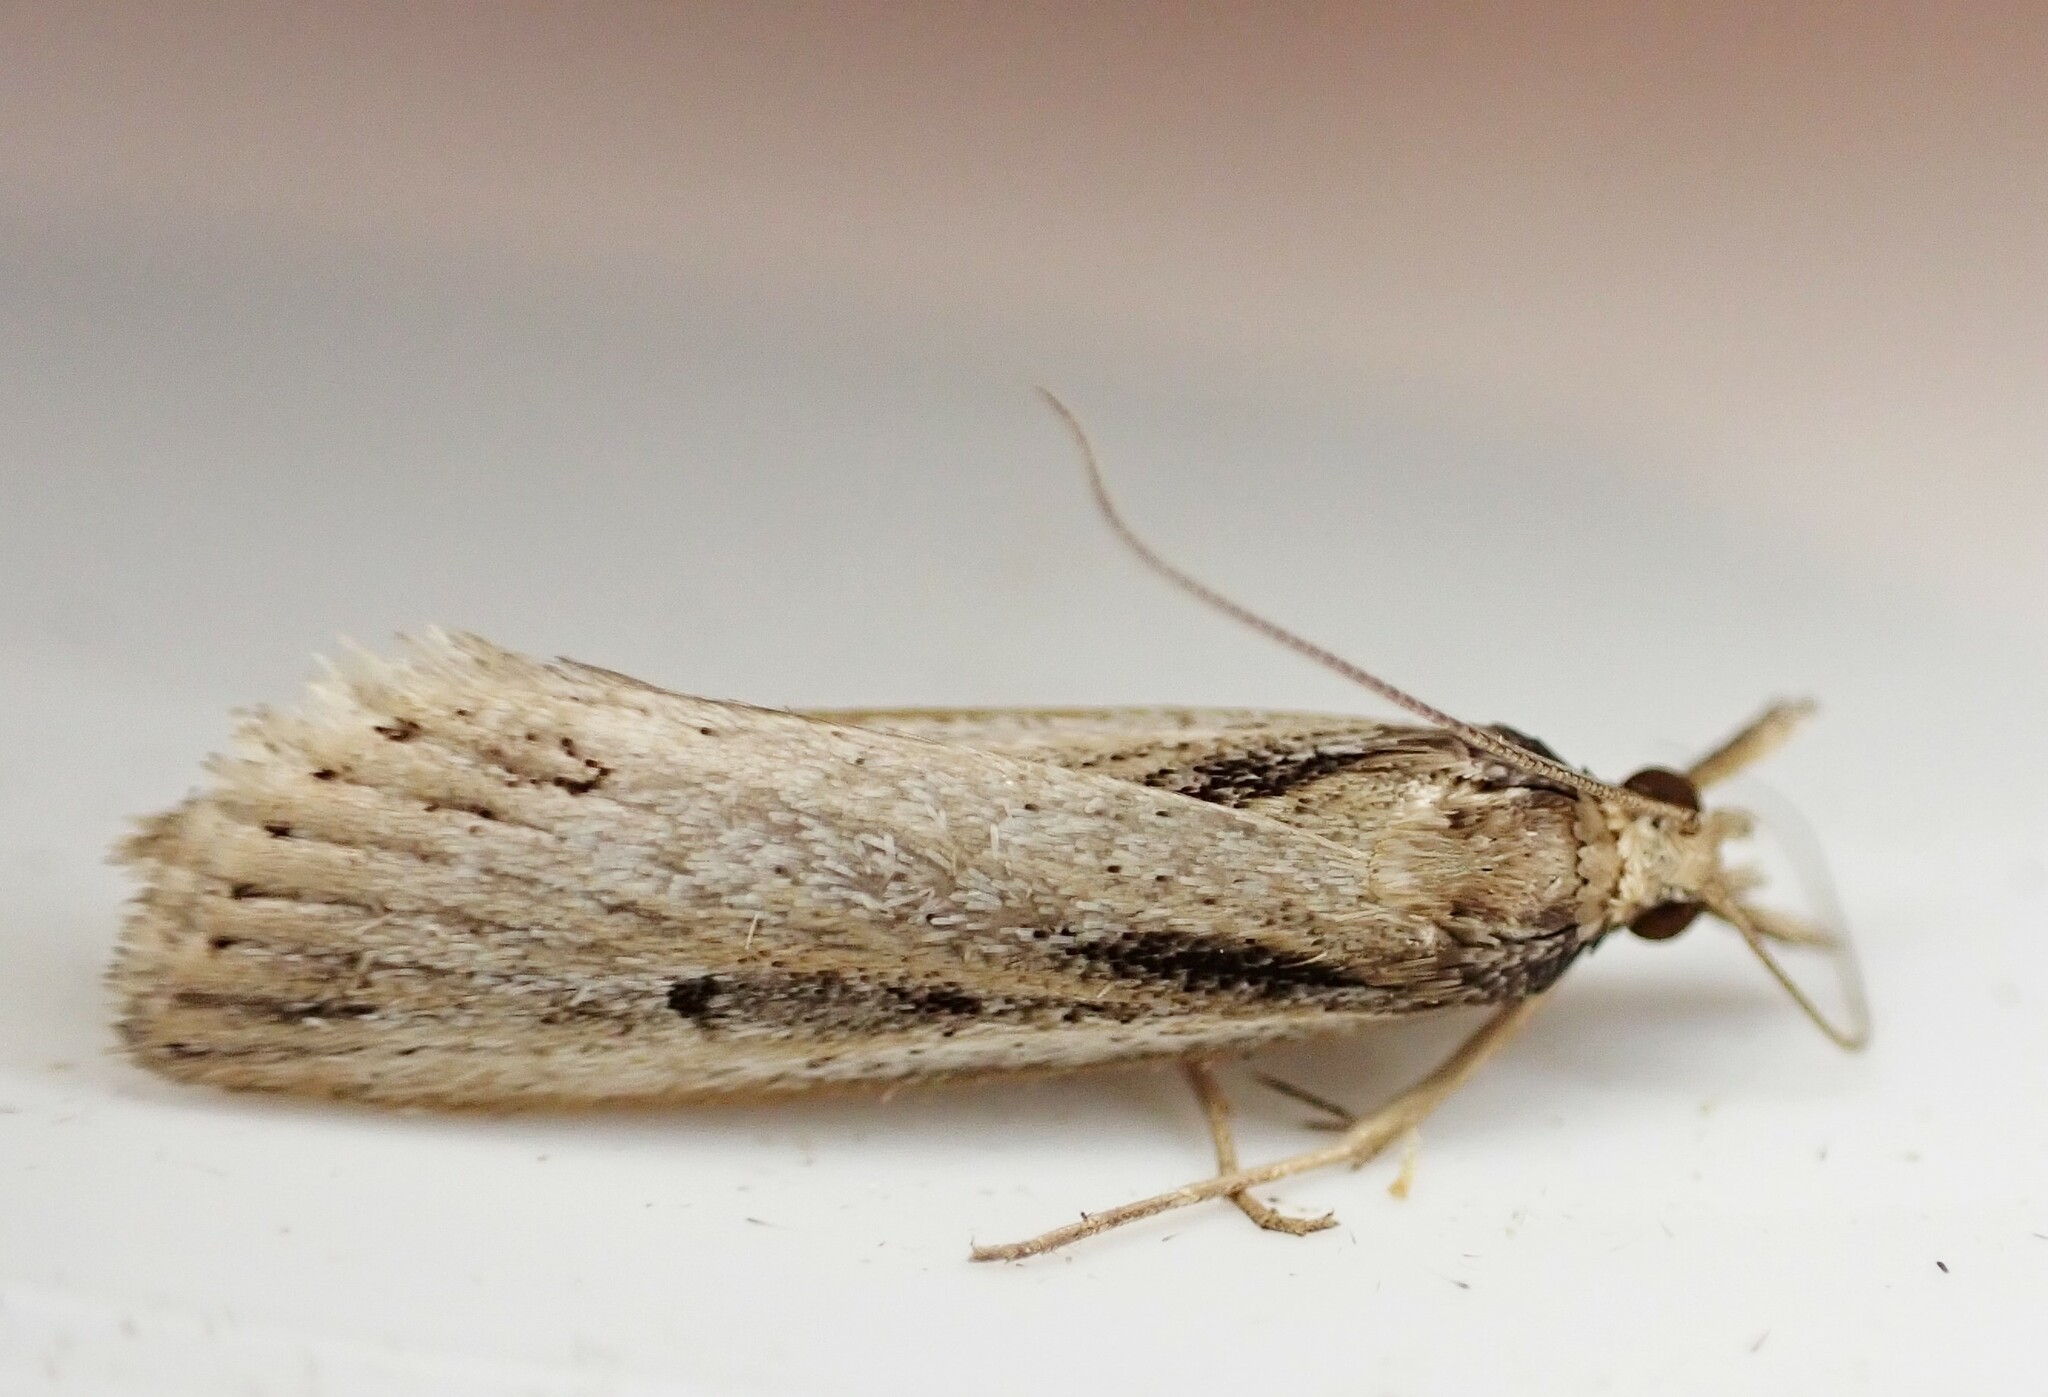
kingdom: Animalia
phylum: Arthropoda
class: Insecta
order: Lepidoptera
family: Crambidae
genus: Eudonia
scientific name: Eudonia sabulosella
